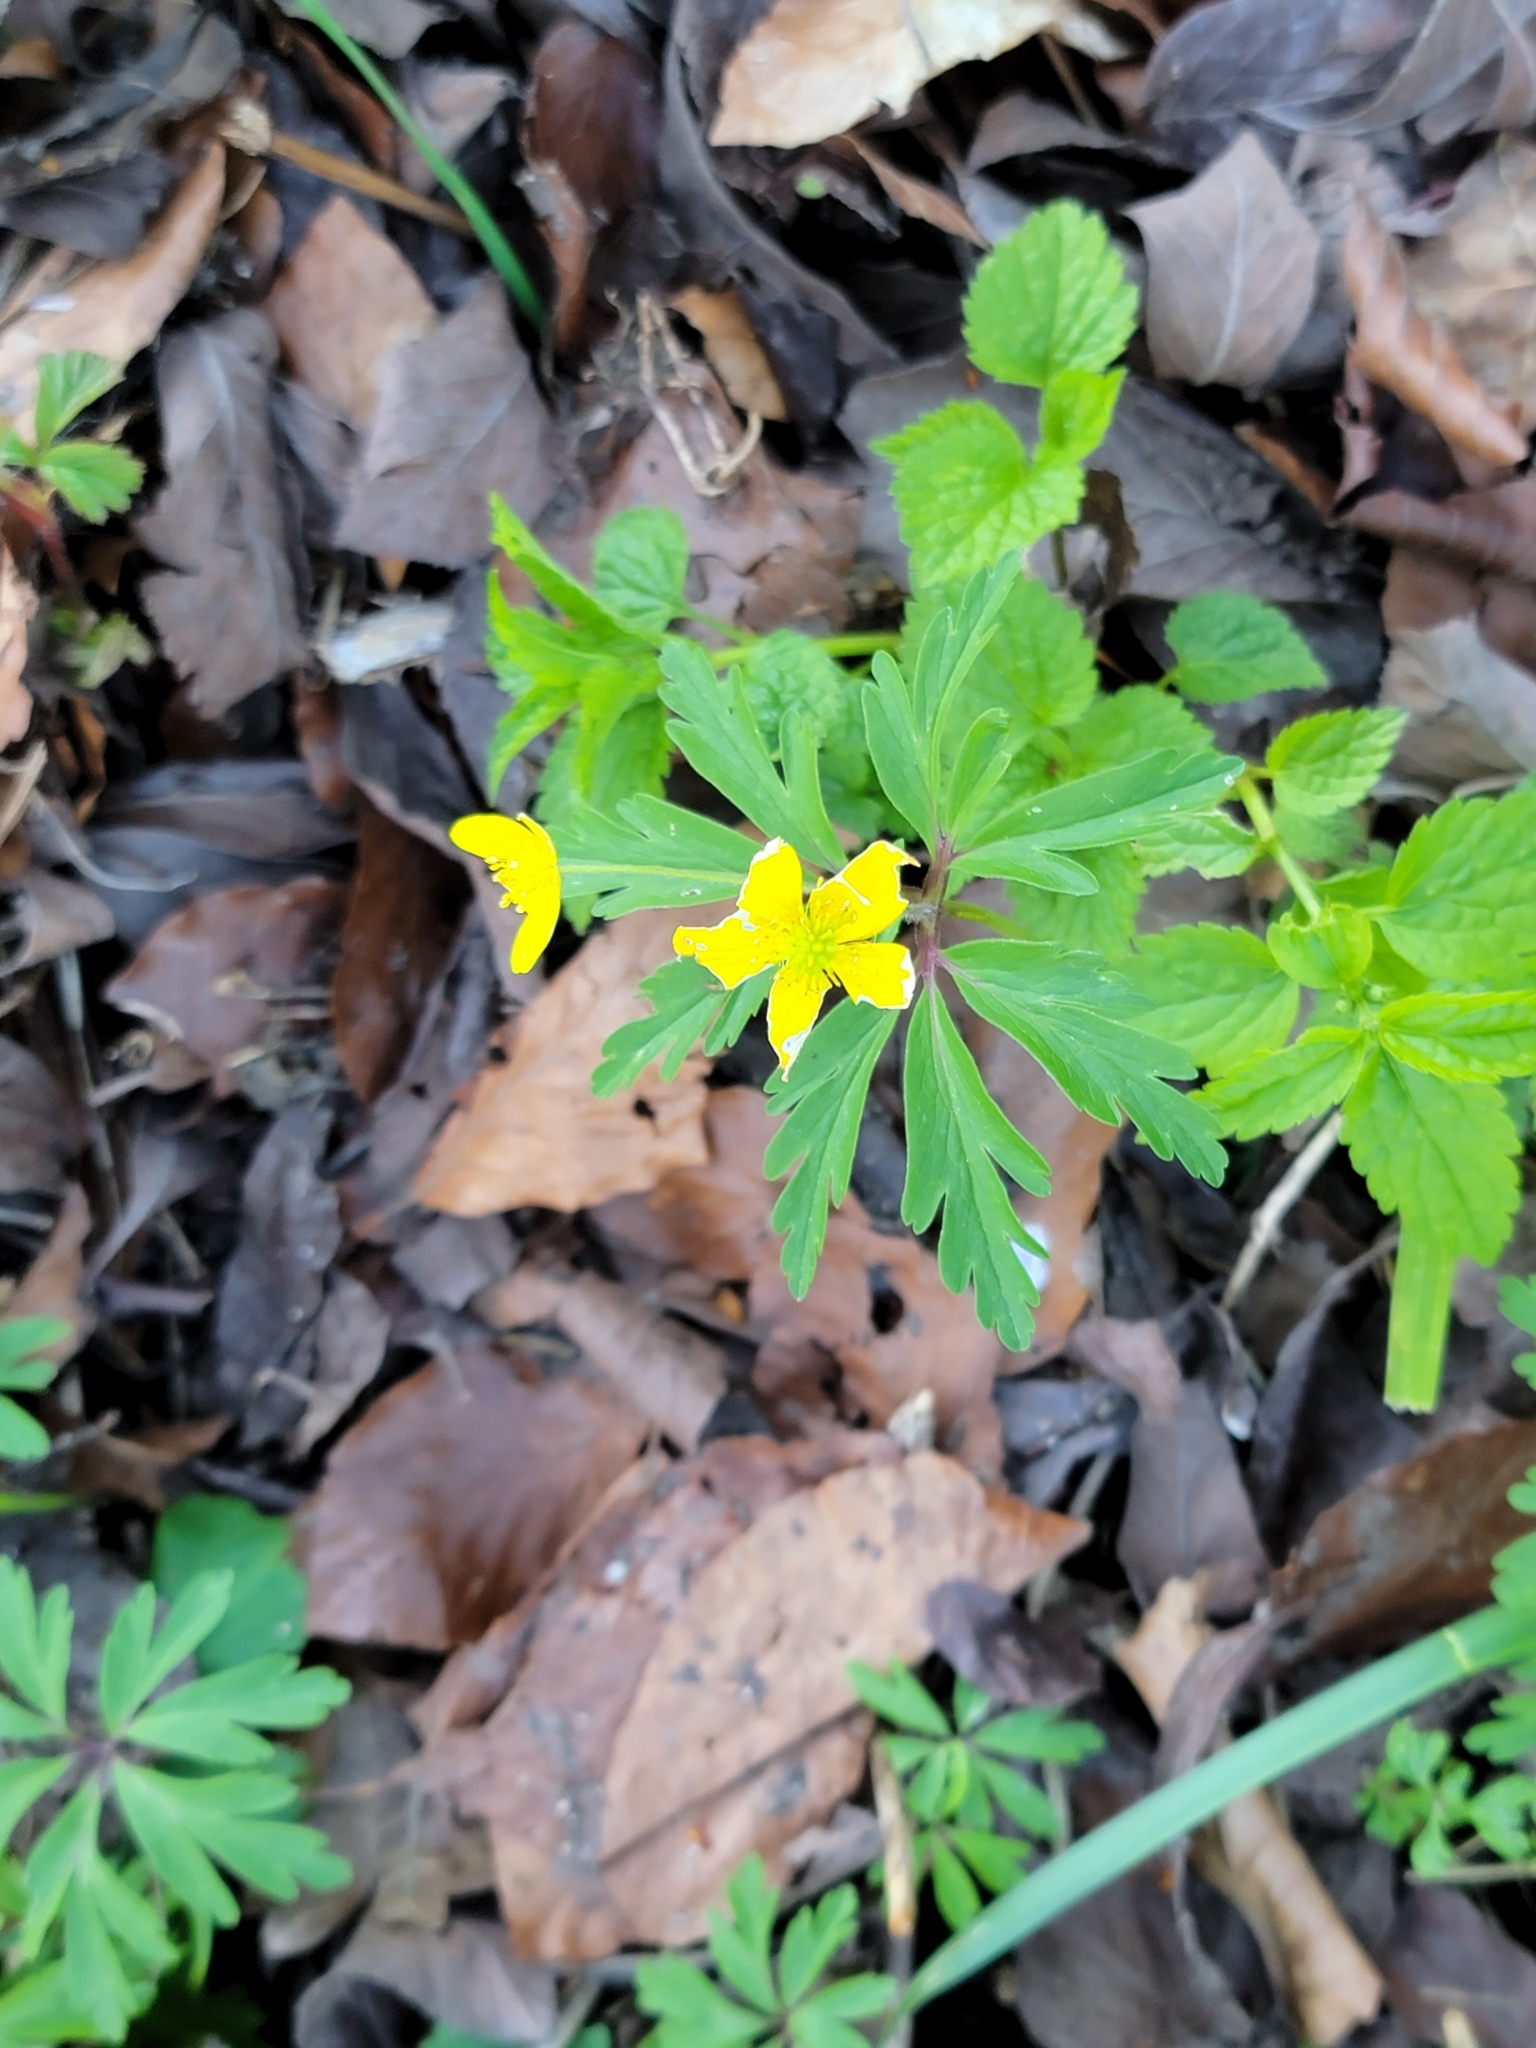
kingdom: Plantae
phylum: Tracheophyta
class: Magnoliopsida
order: Ranunculales
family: Ranunculaceae
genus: Anemone
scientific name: Anemone ranunculoides
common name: Yellow anemone
